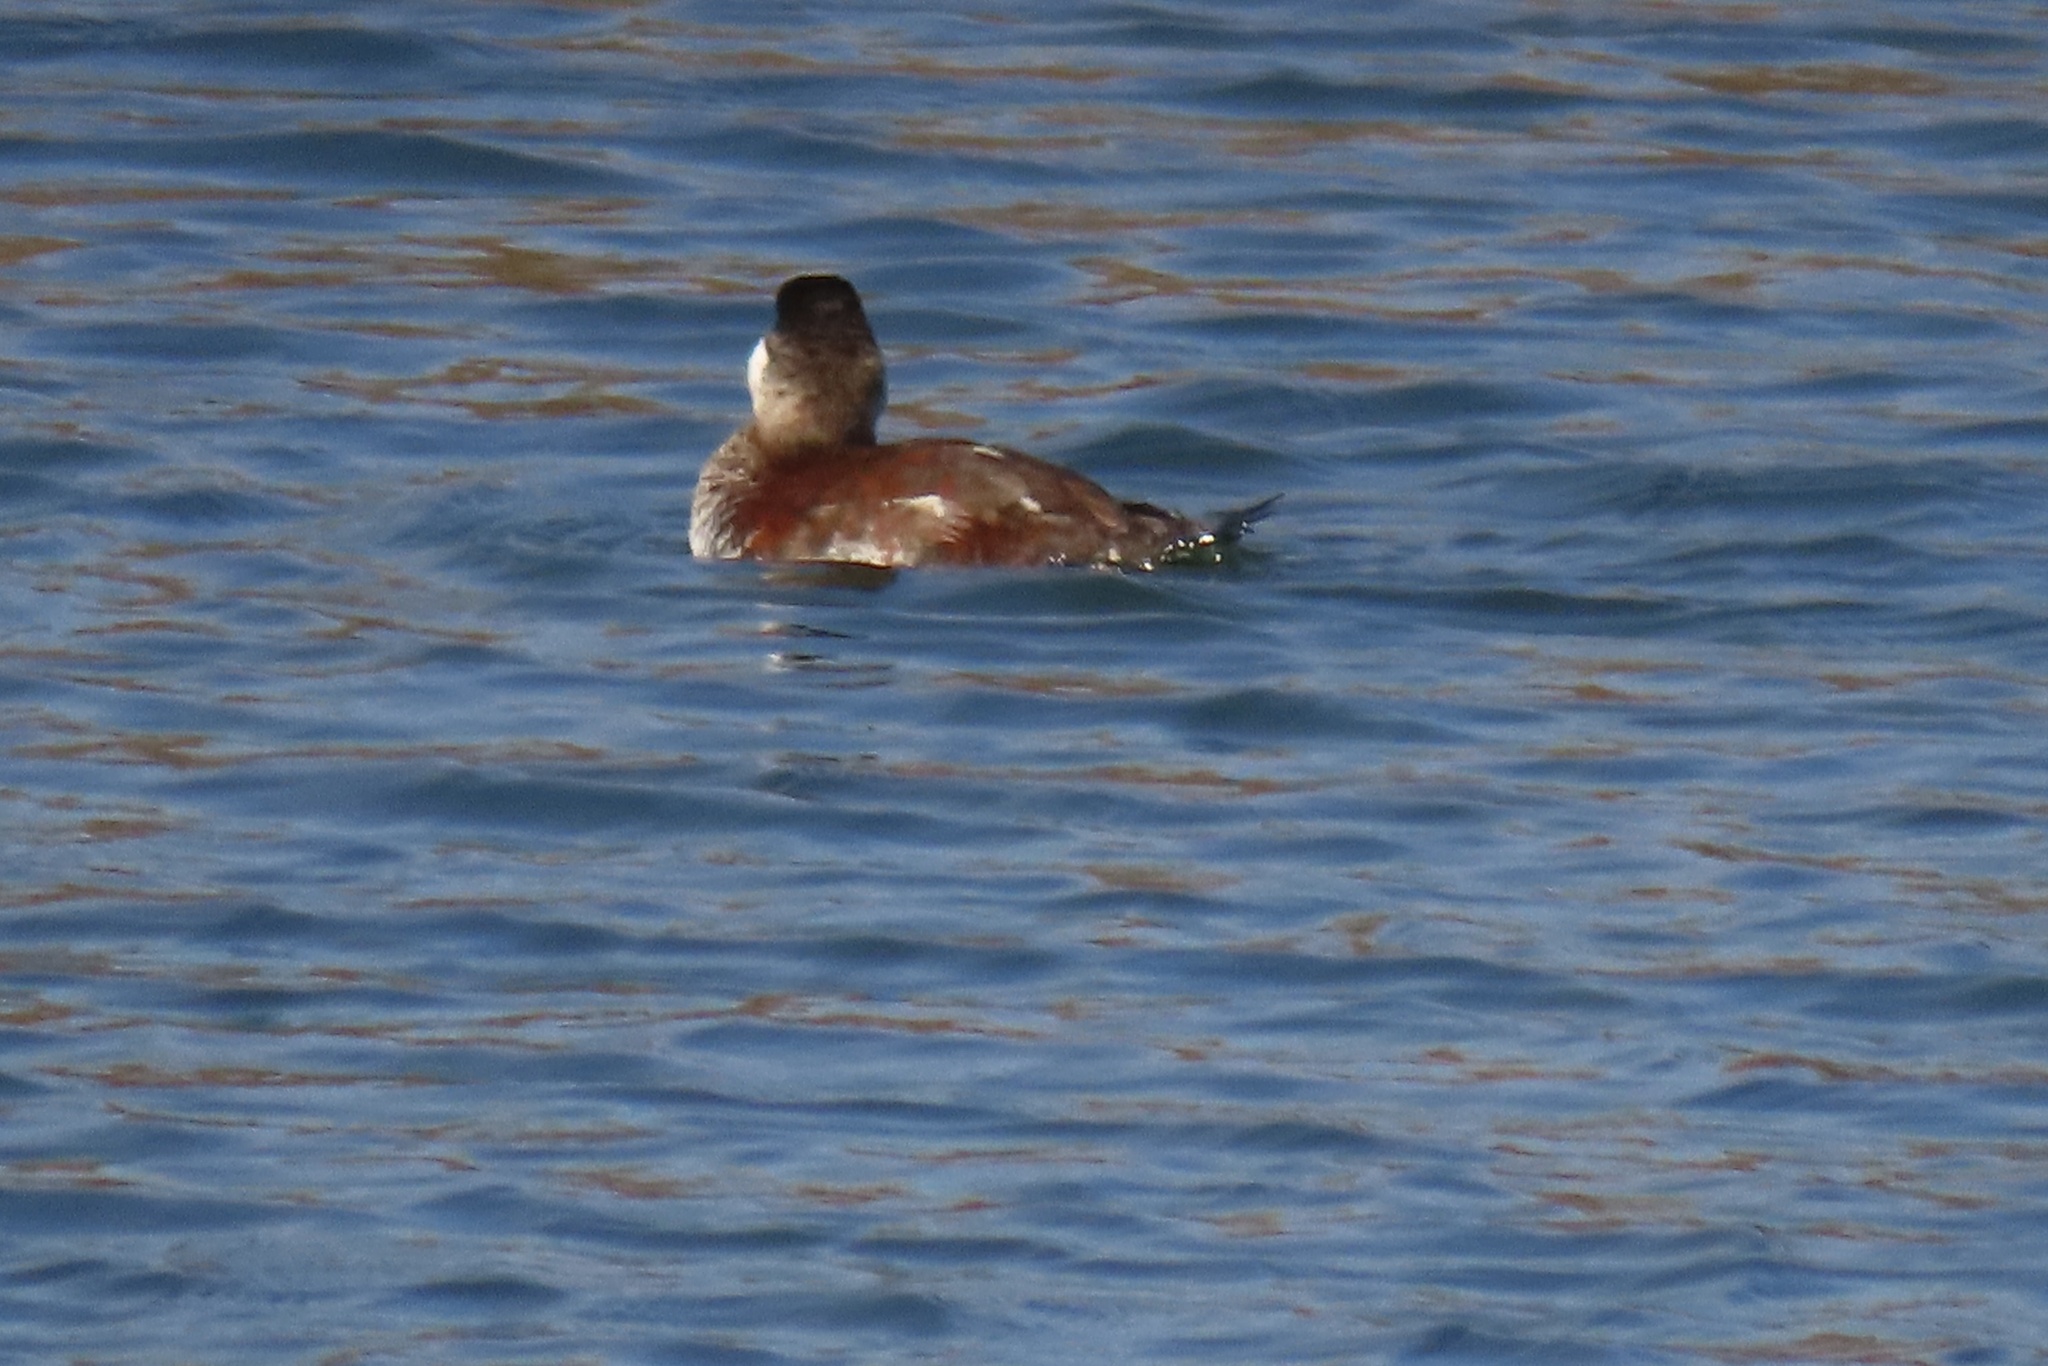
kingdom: Animalia
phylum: Chordata
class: Aves
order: Anseriformes
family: Anatidae
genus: Oxyura
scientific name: Oxyura jamaicensis
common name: Ruddy duck
